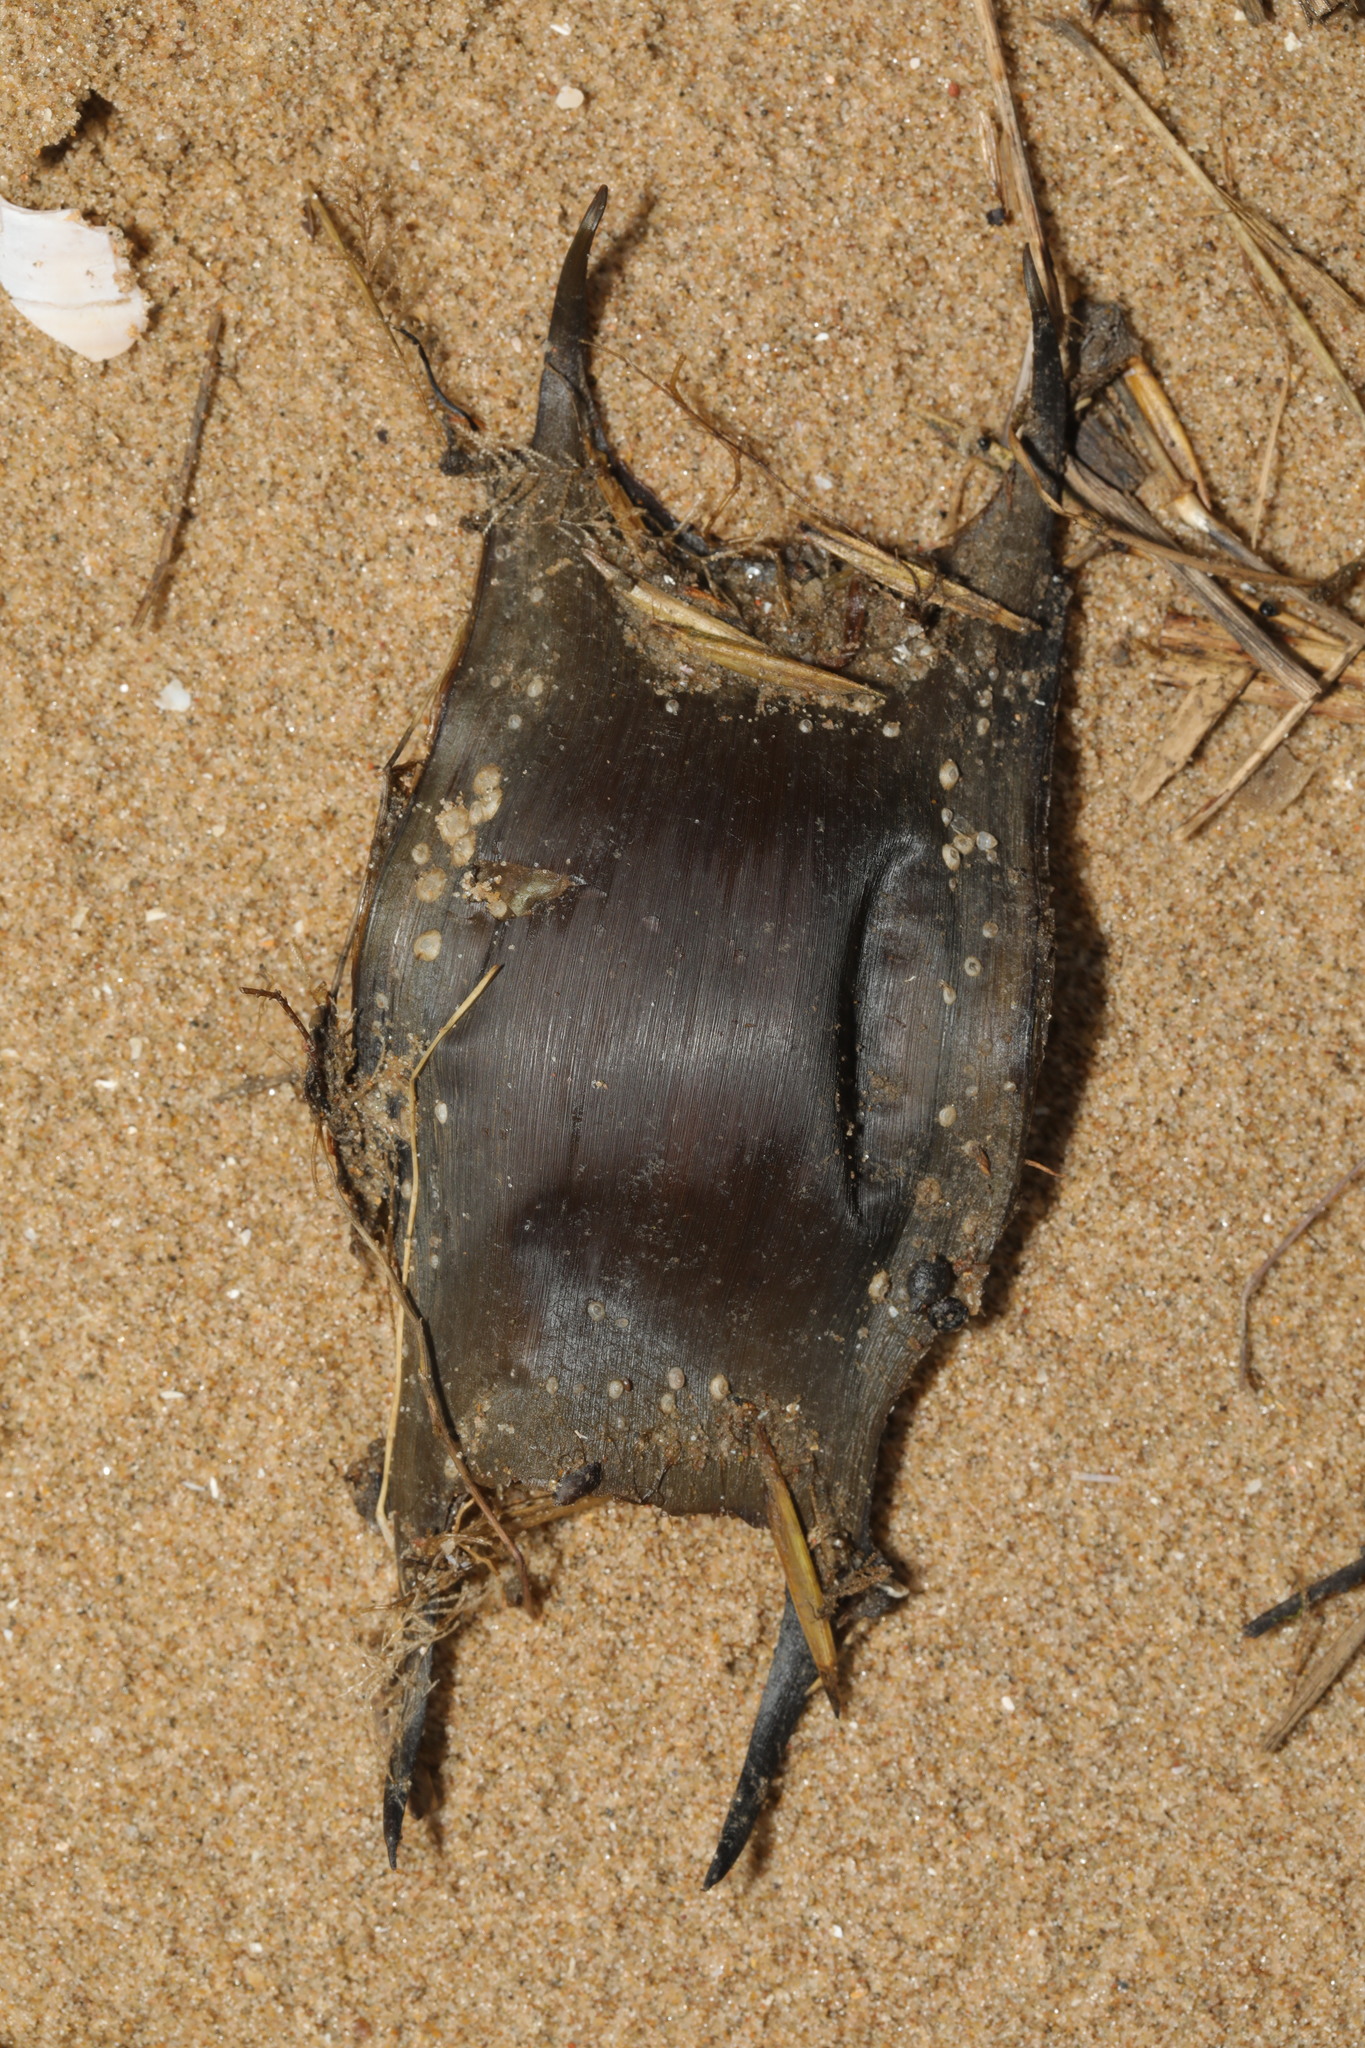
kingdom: Animalia
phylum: Chordata
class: Elasmobranchii
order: Rajiformes
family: Rajidae
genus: Raja
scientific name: Raja clavata
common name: Thornback ray
